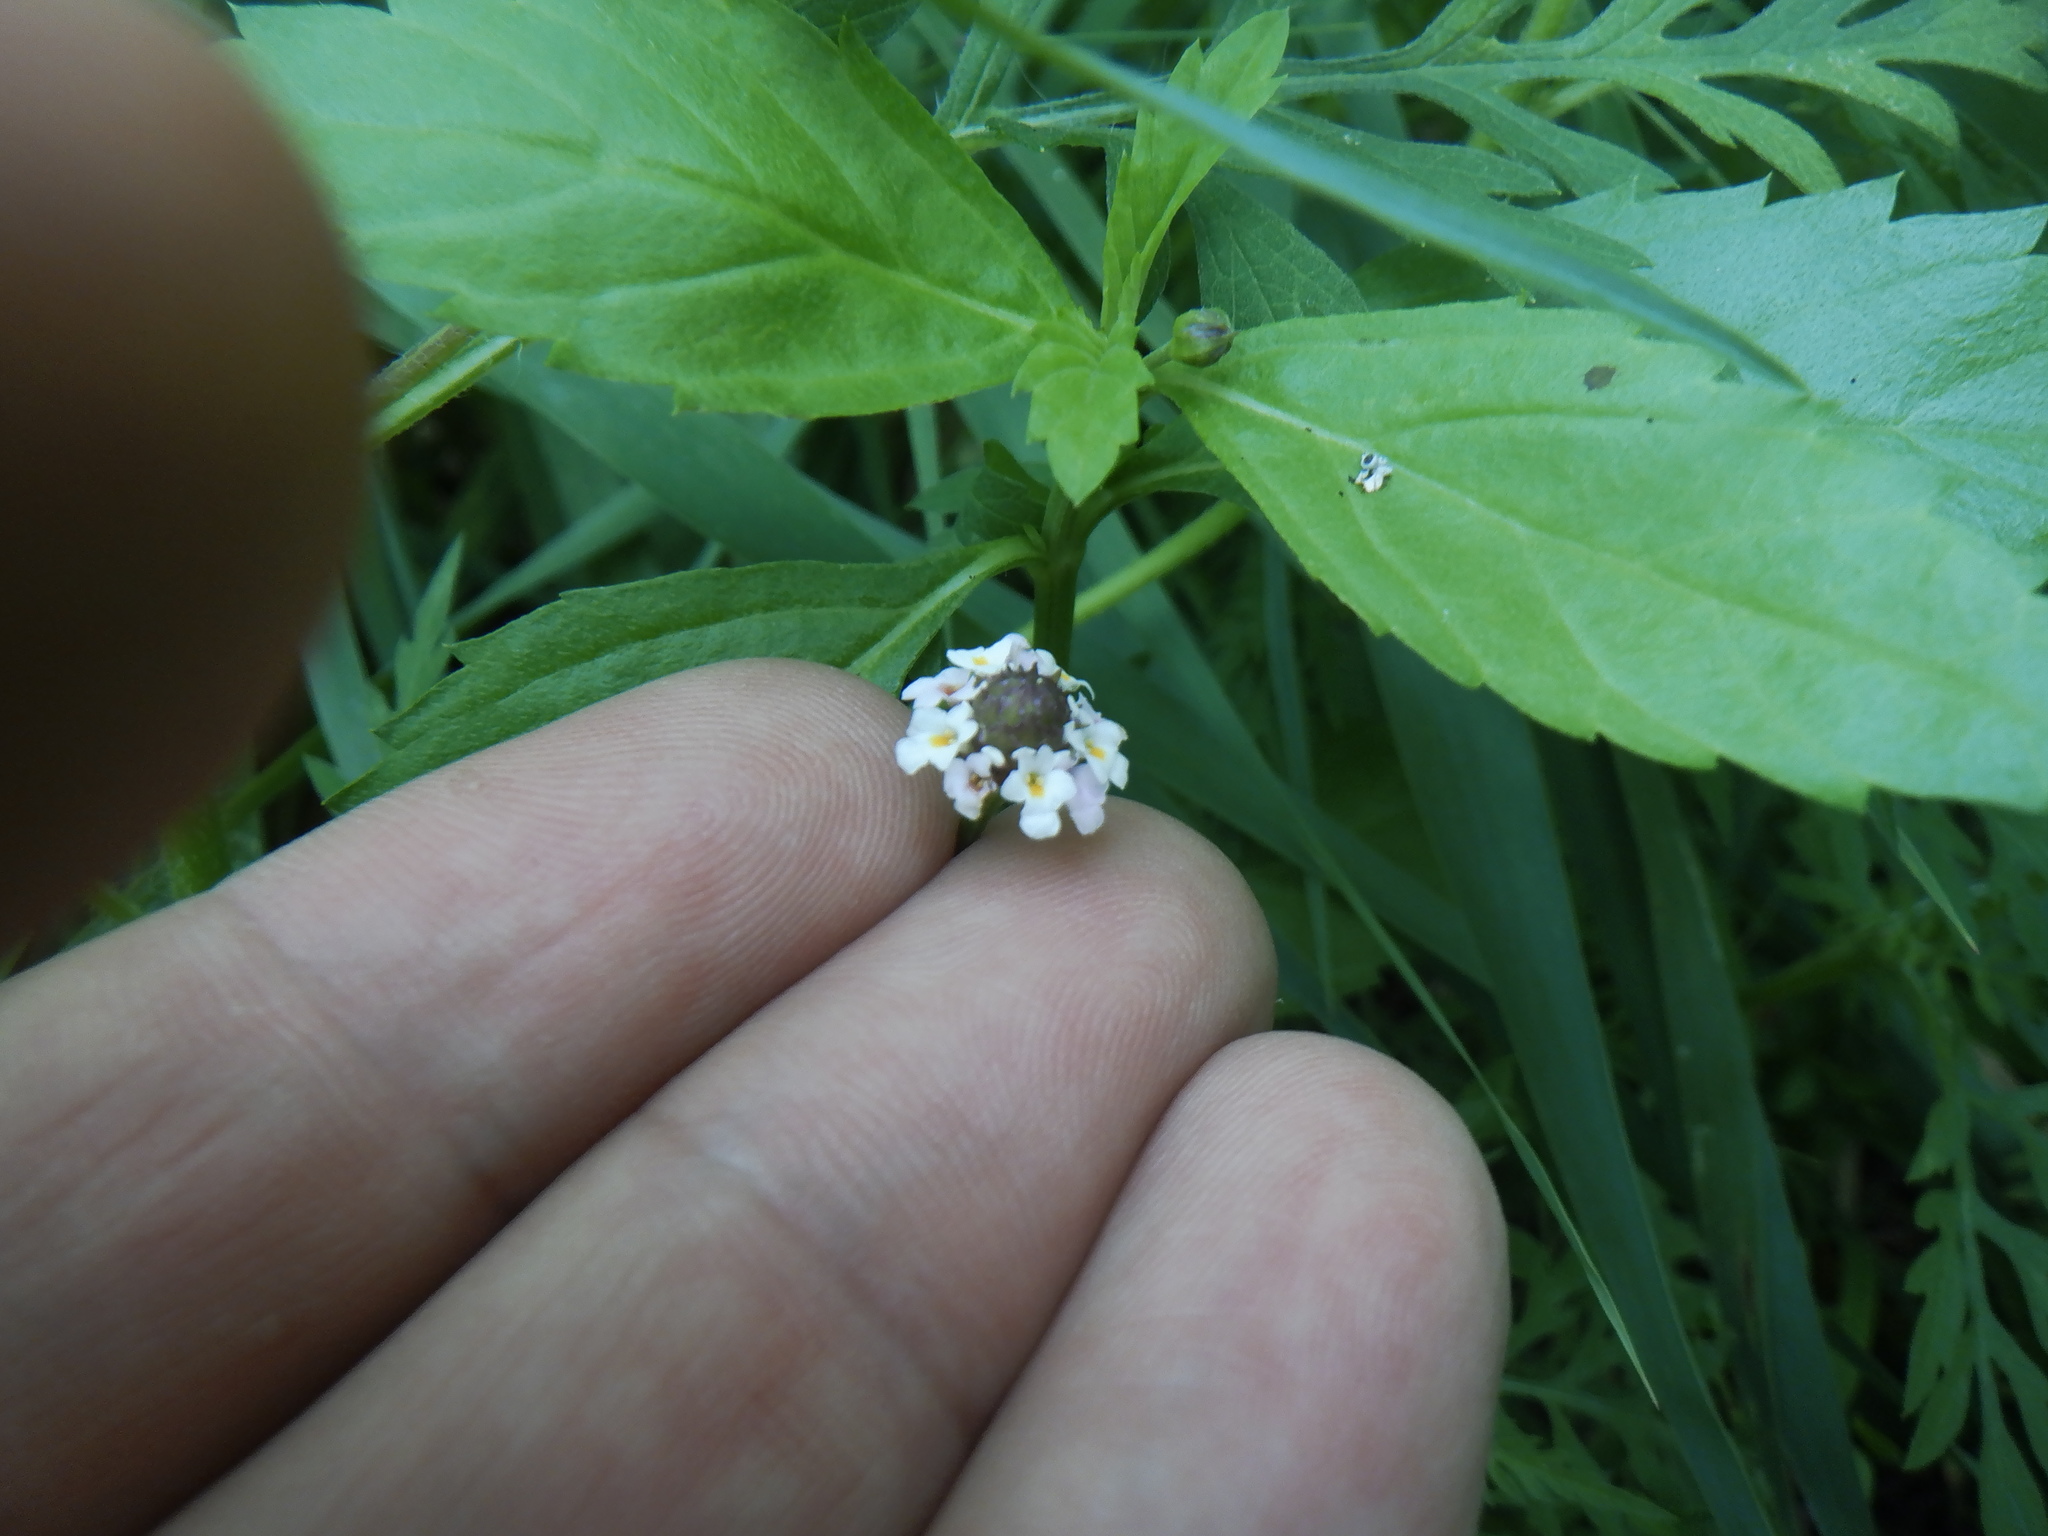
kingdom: Plantae
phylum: Tracheophyta
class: Magnoliopsida
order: Lamiales
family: Verbenaceae
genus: Phyla
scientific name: Phyla lanceolata
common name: Northern fogfruit
